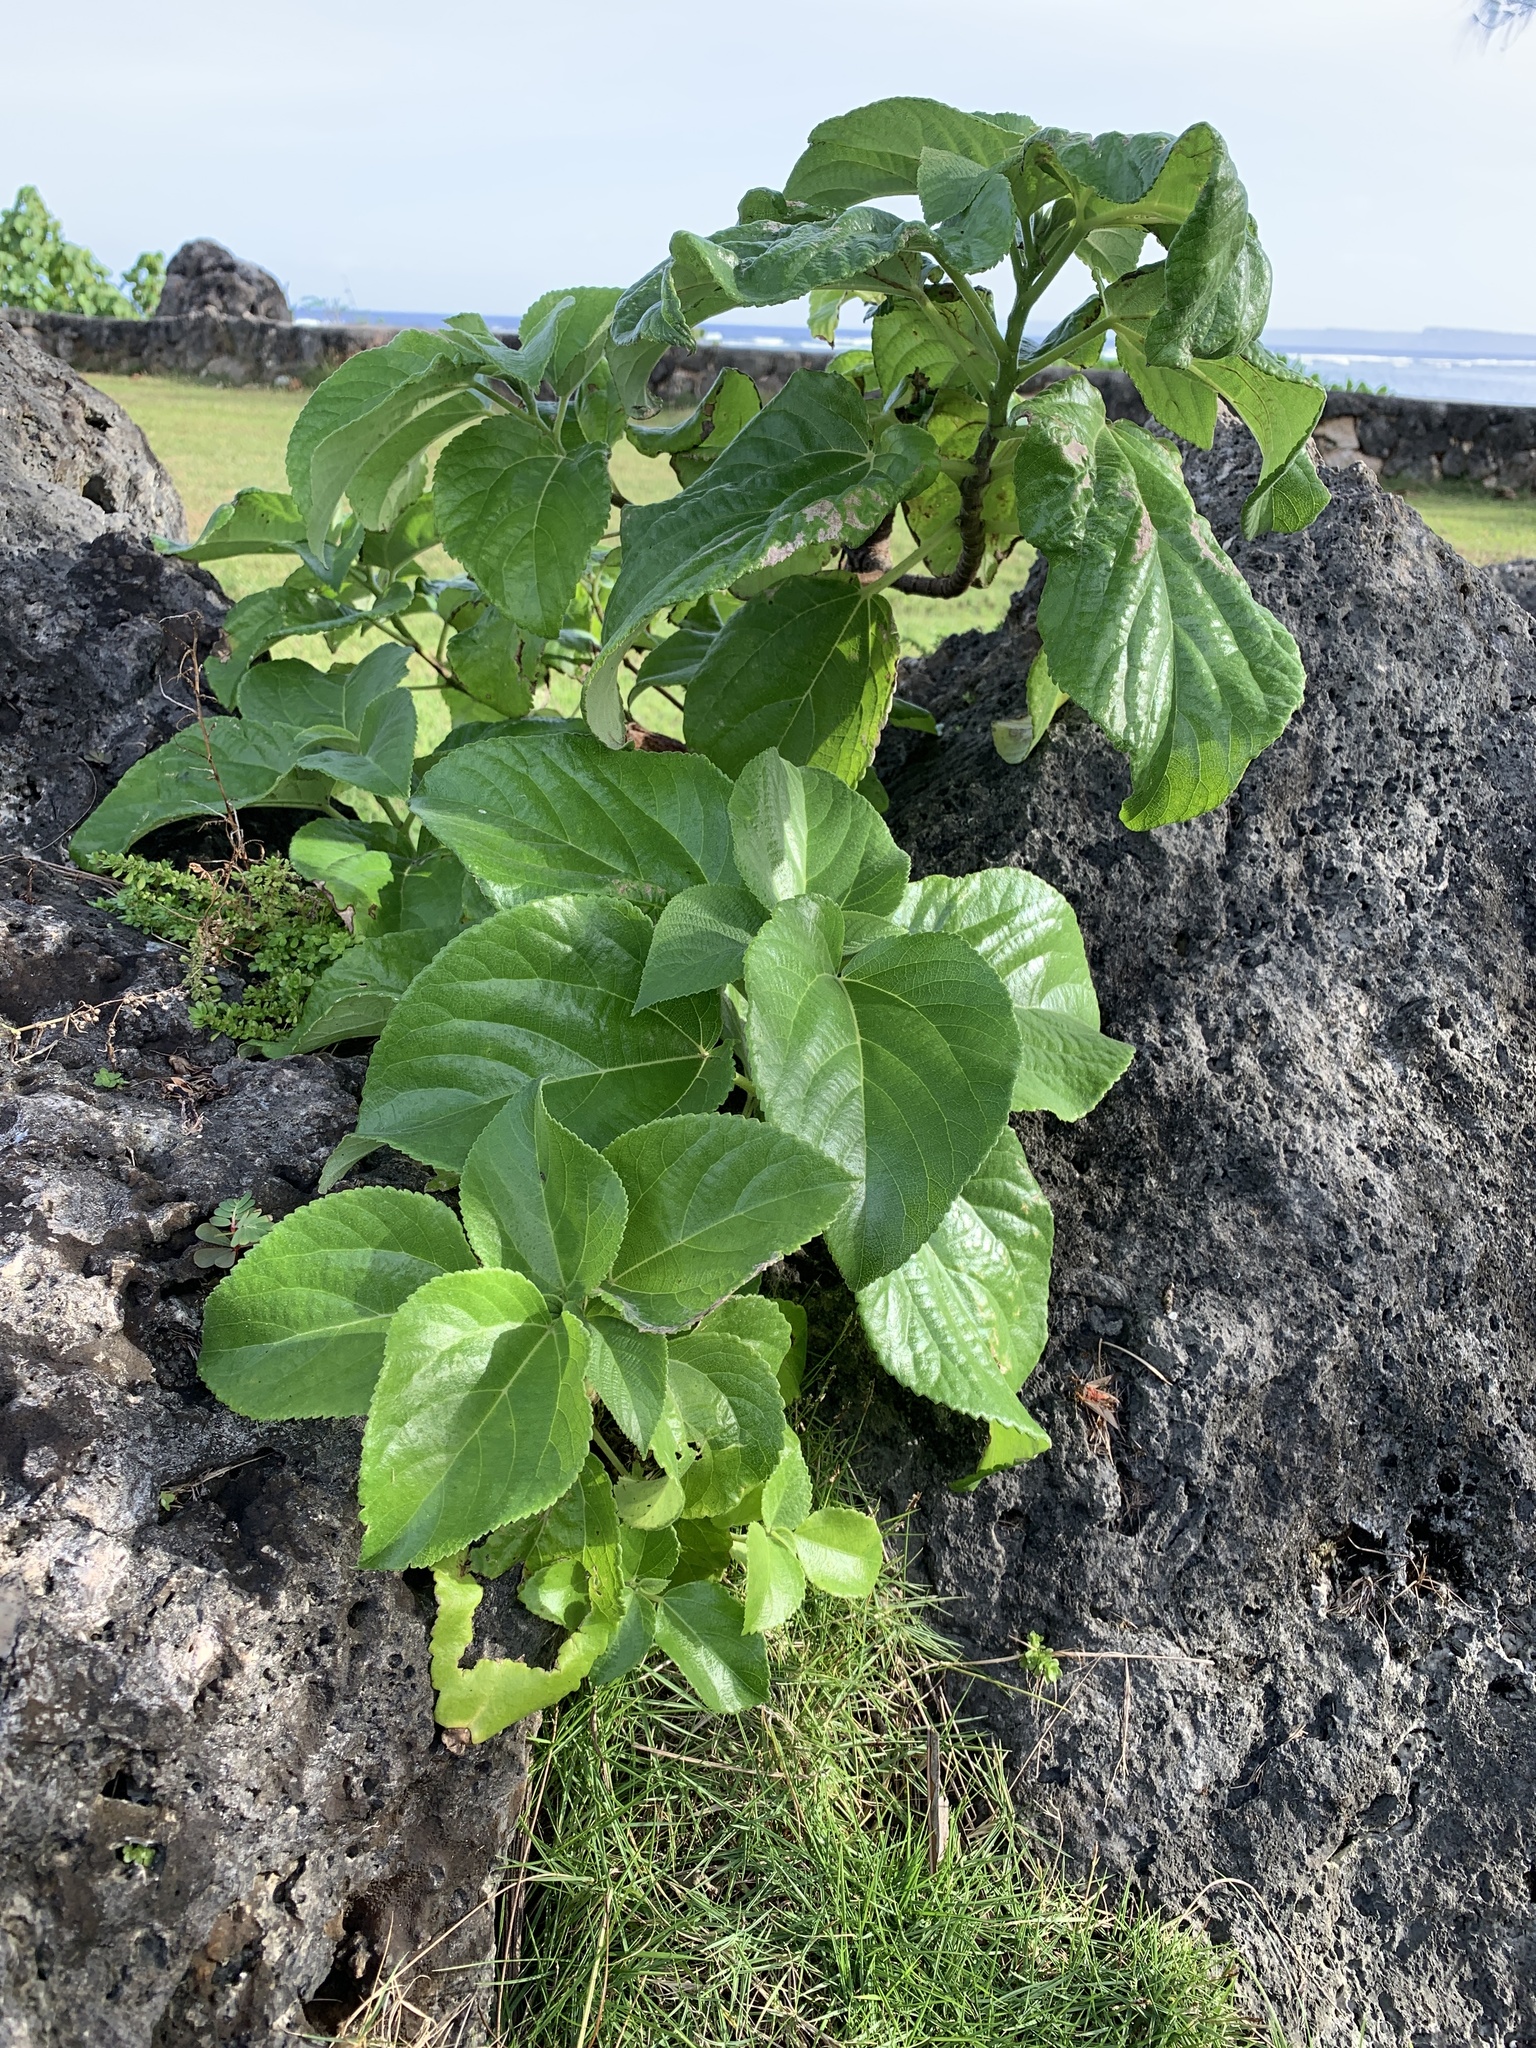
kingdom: Plantae
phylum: Tracheophyta
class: Magnoliopsida
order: Rosales
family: Urticaceae
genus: Pipturus
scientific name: Pipturus argenteus
